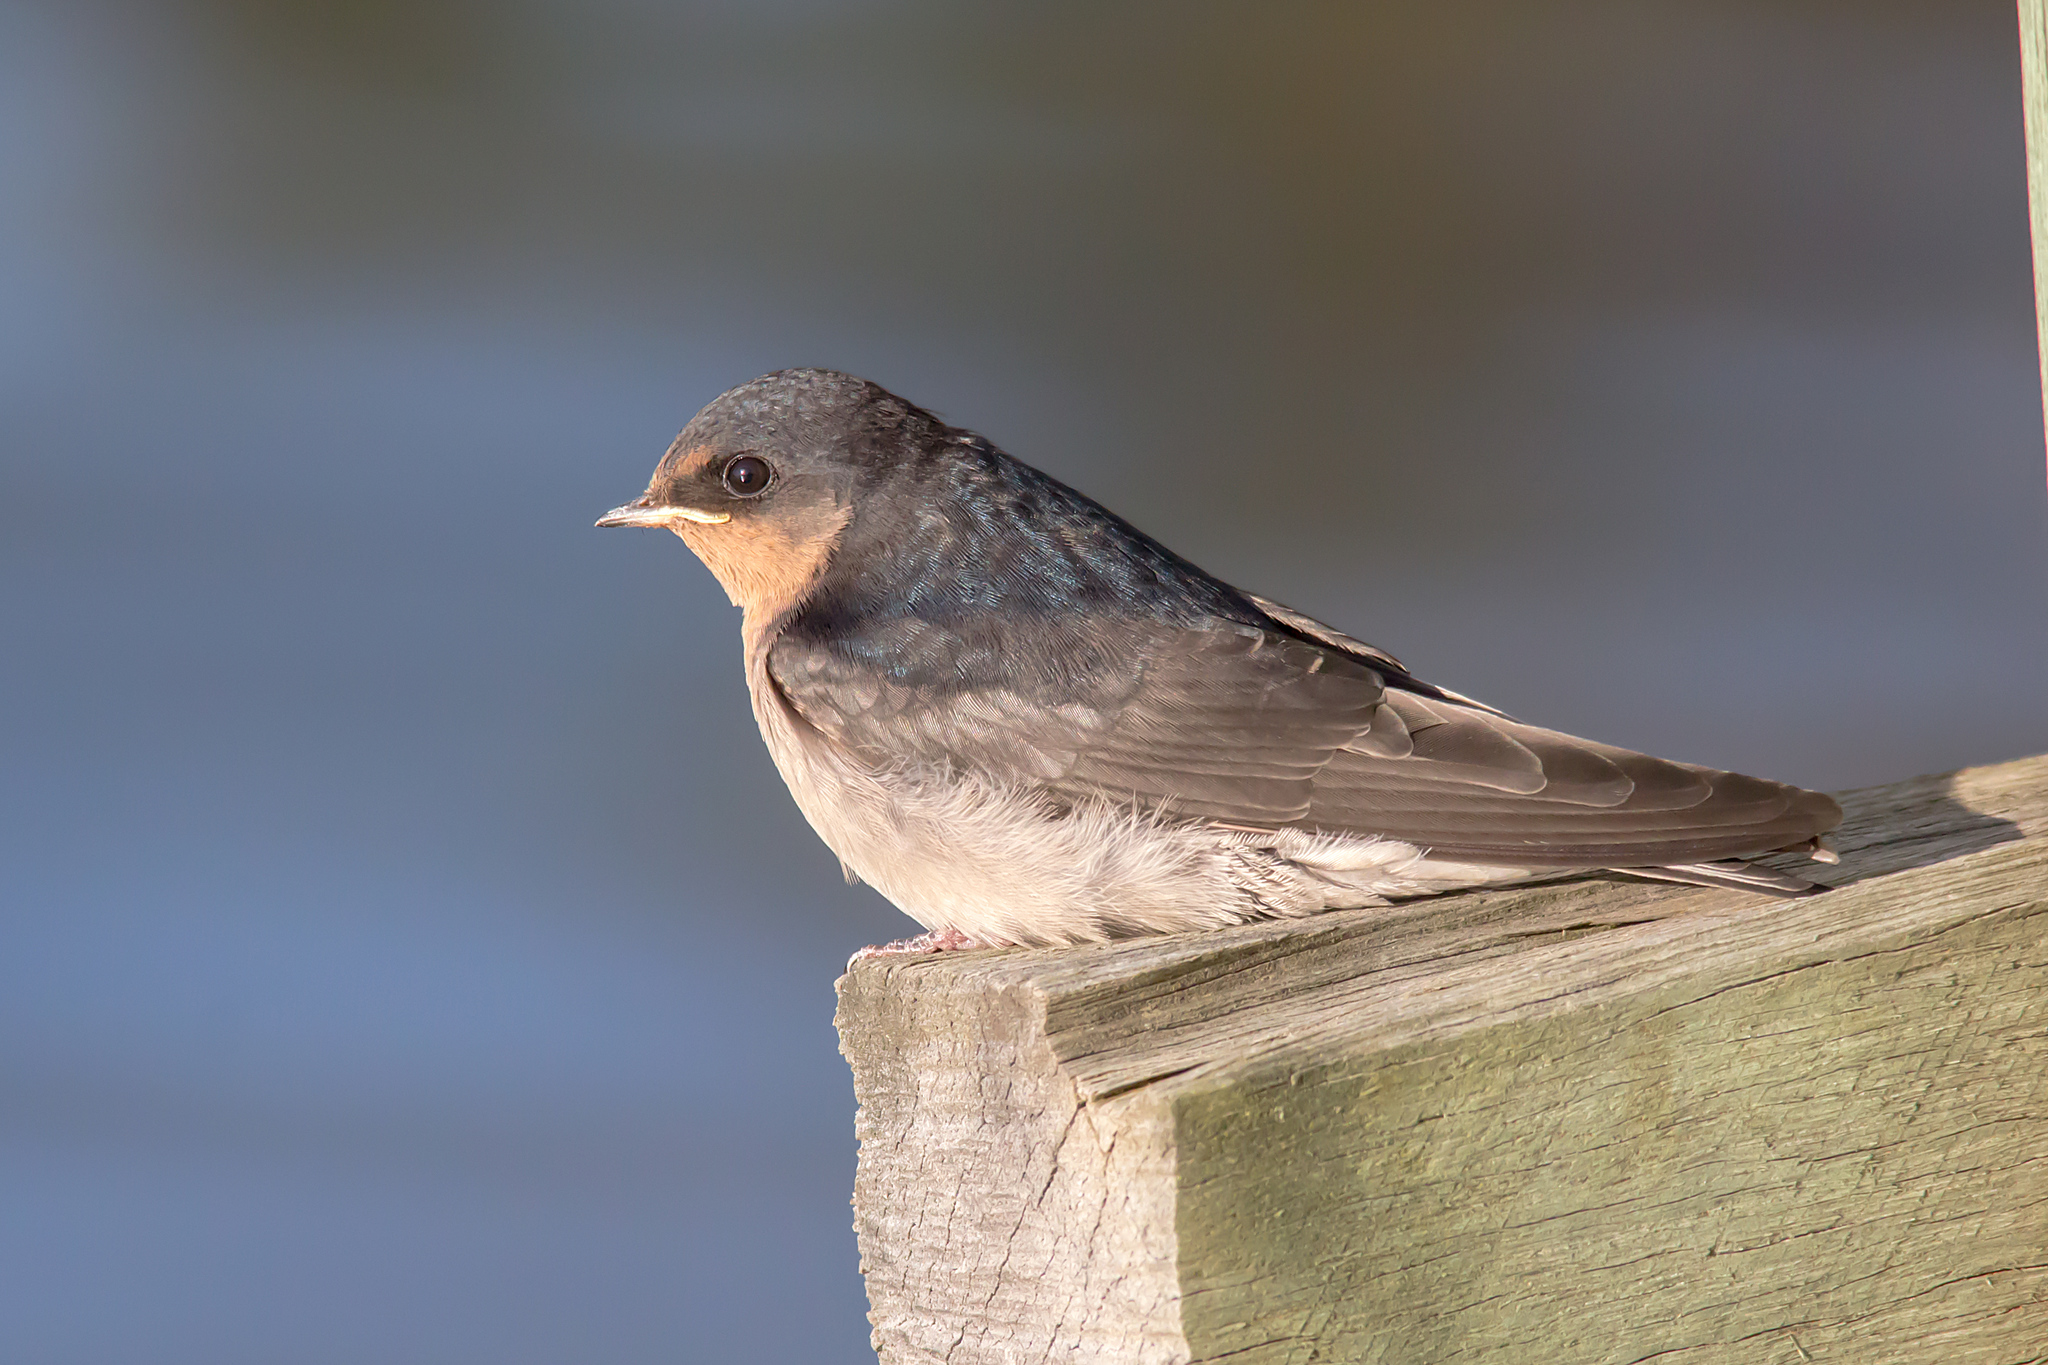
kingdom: Animalia
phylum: Chordata
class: Aves
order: Passeriformes
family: Hirundinidae
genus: Hirundo
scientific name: Hirundo neoxena
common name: Welcome swallow
